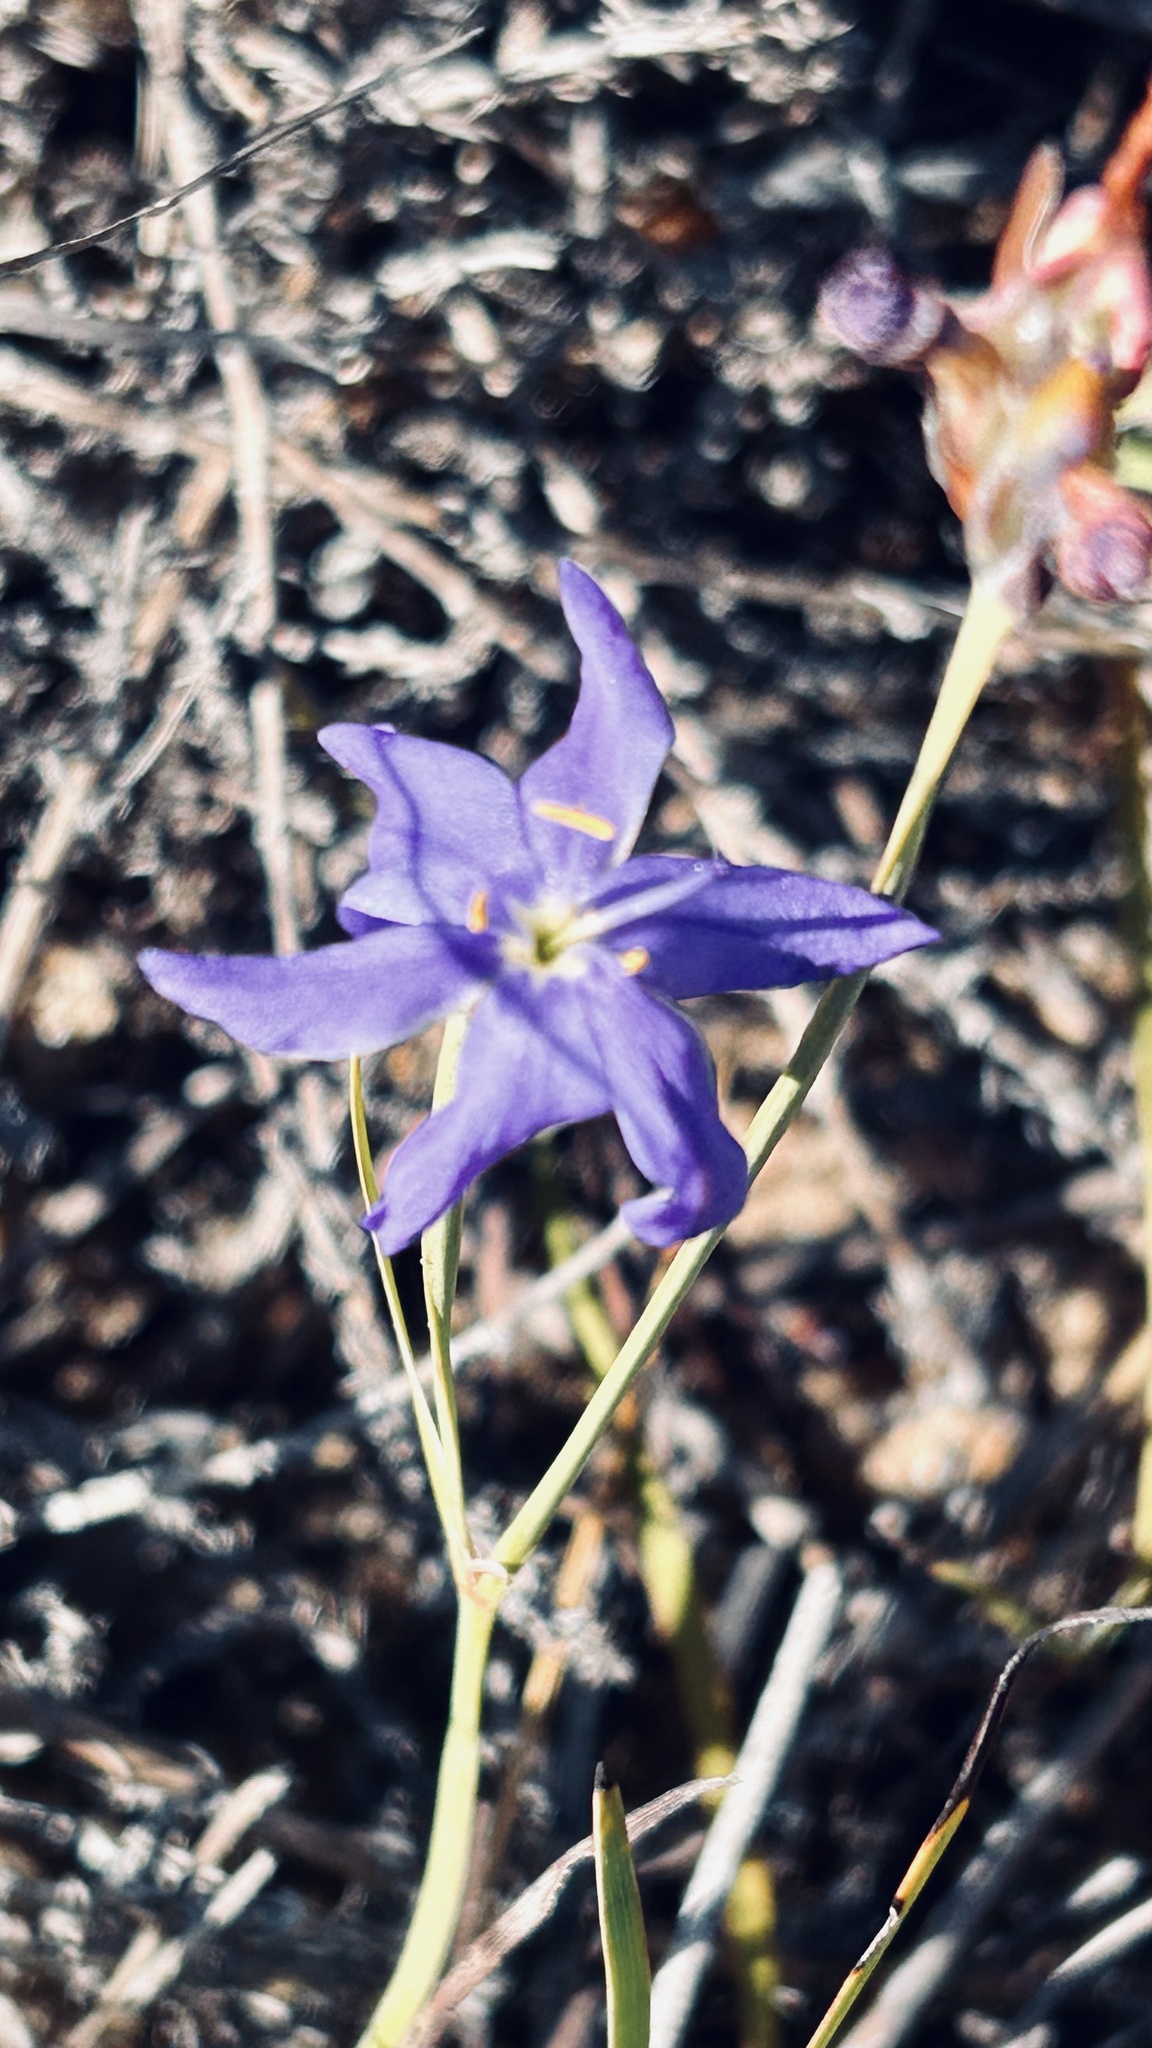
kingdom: Plantae
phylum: Tracheophyta
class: Liliopsida
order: Asparagales
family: Iridaceae
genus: Aristea
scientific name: Aristea glauca
